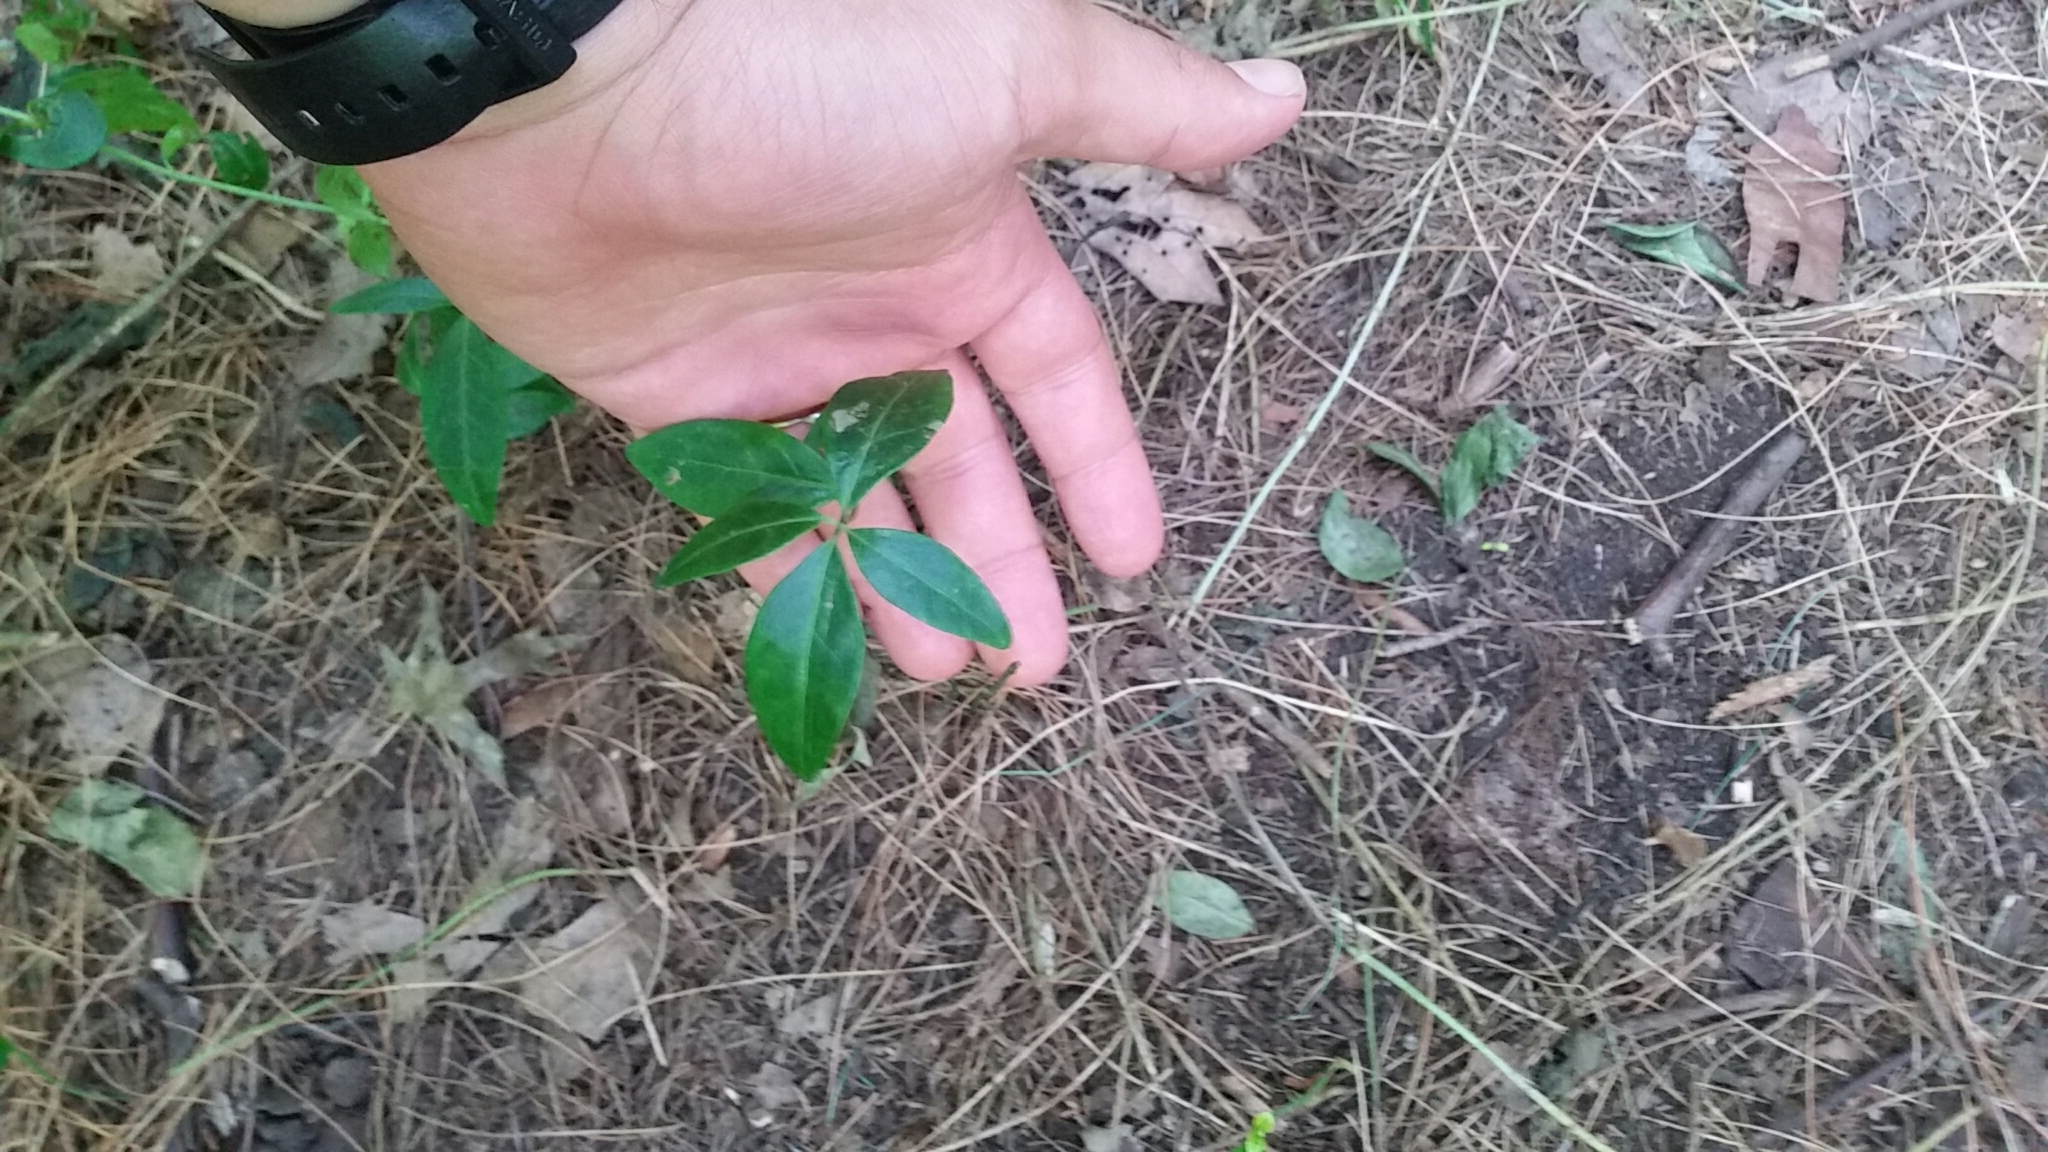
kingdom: Plantae
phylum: Tracheophyta
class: Magnoliopsida
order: Gentianales
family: Apocynaceae
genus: Vinca
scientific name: Vinca minor
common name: Lesser periwinkle
